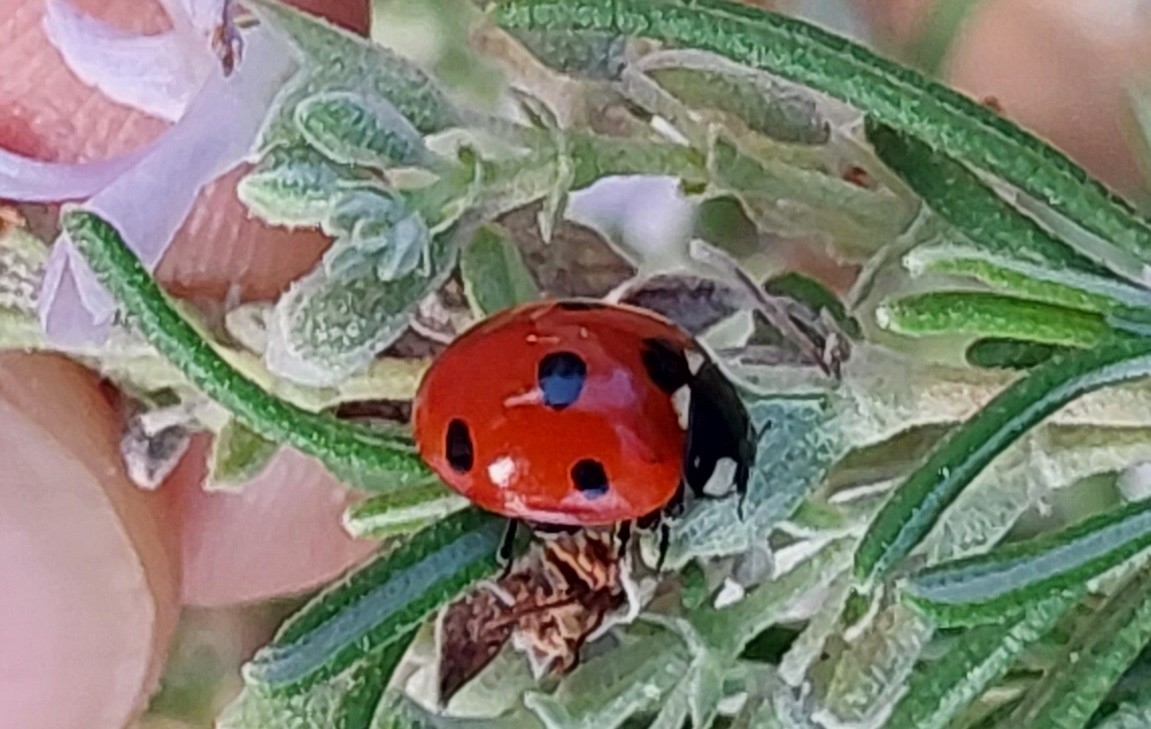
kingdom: Animalia
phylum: Arthropoda
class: Insecta
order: Coleoptera
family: Coccinellidae
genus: Coccinella
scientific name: Coccinella septempunctata
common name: Sevenspotted lady beetle
